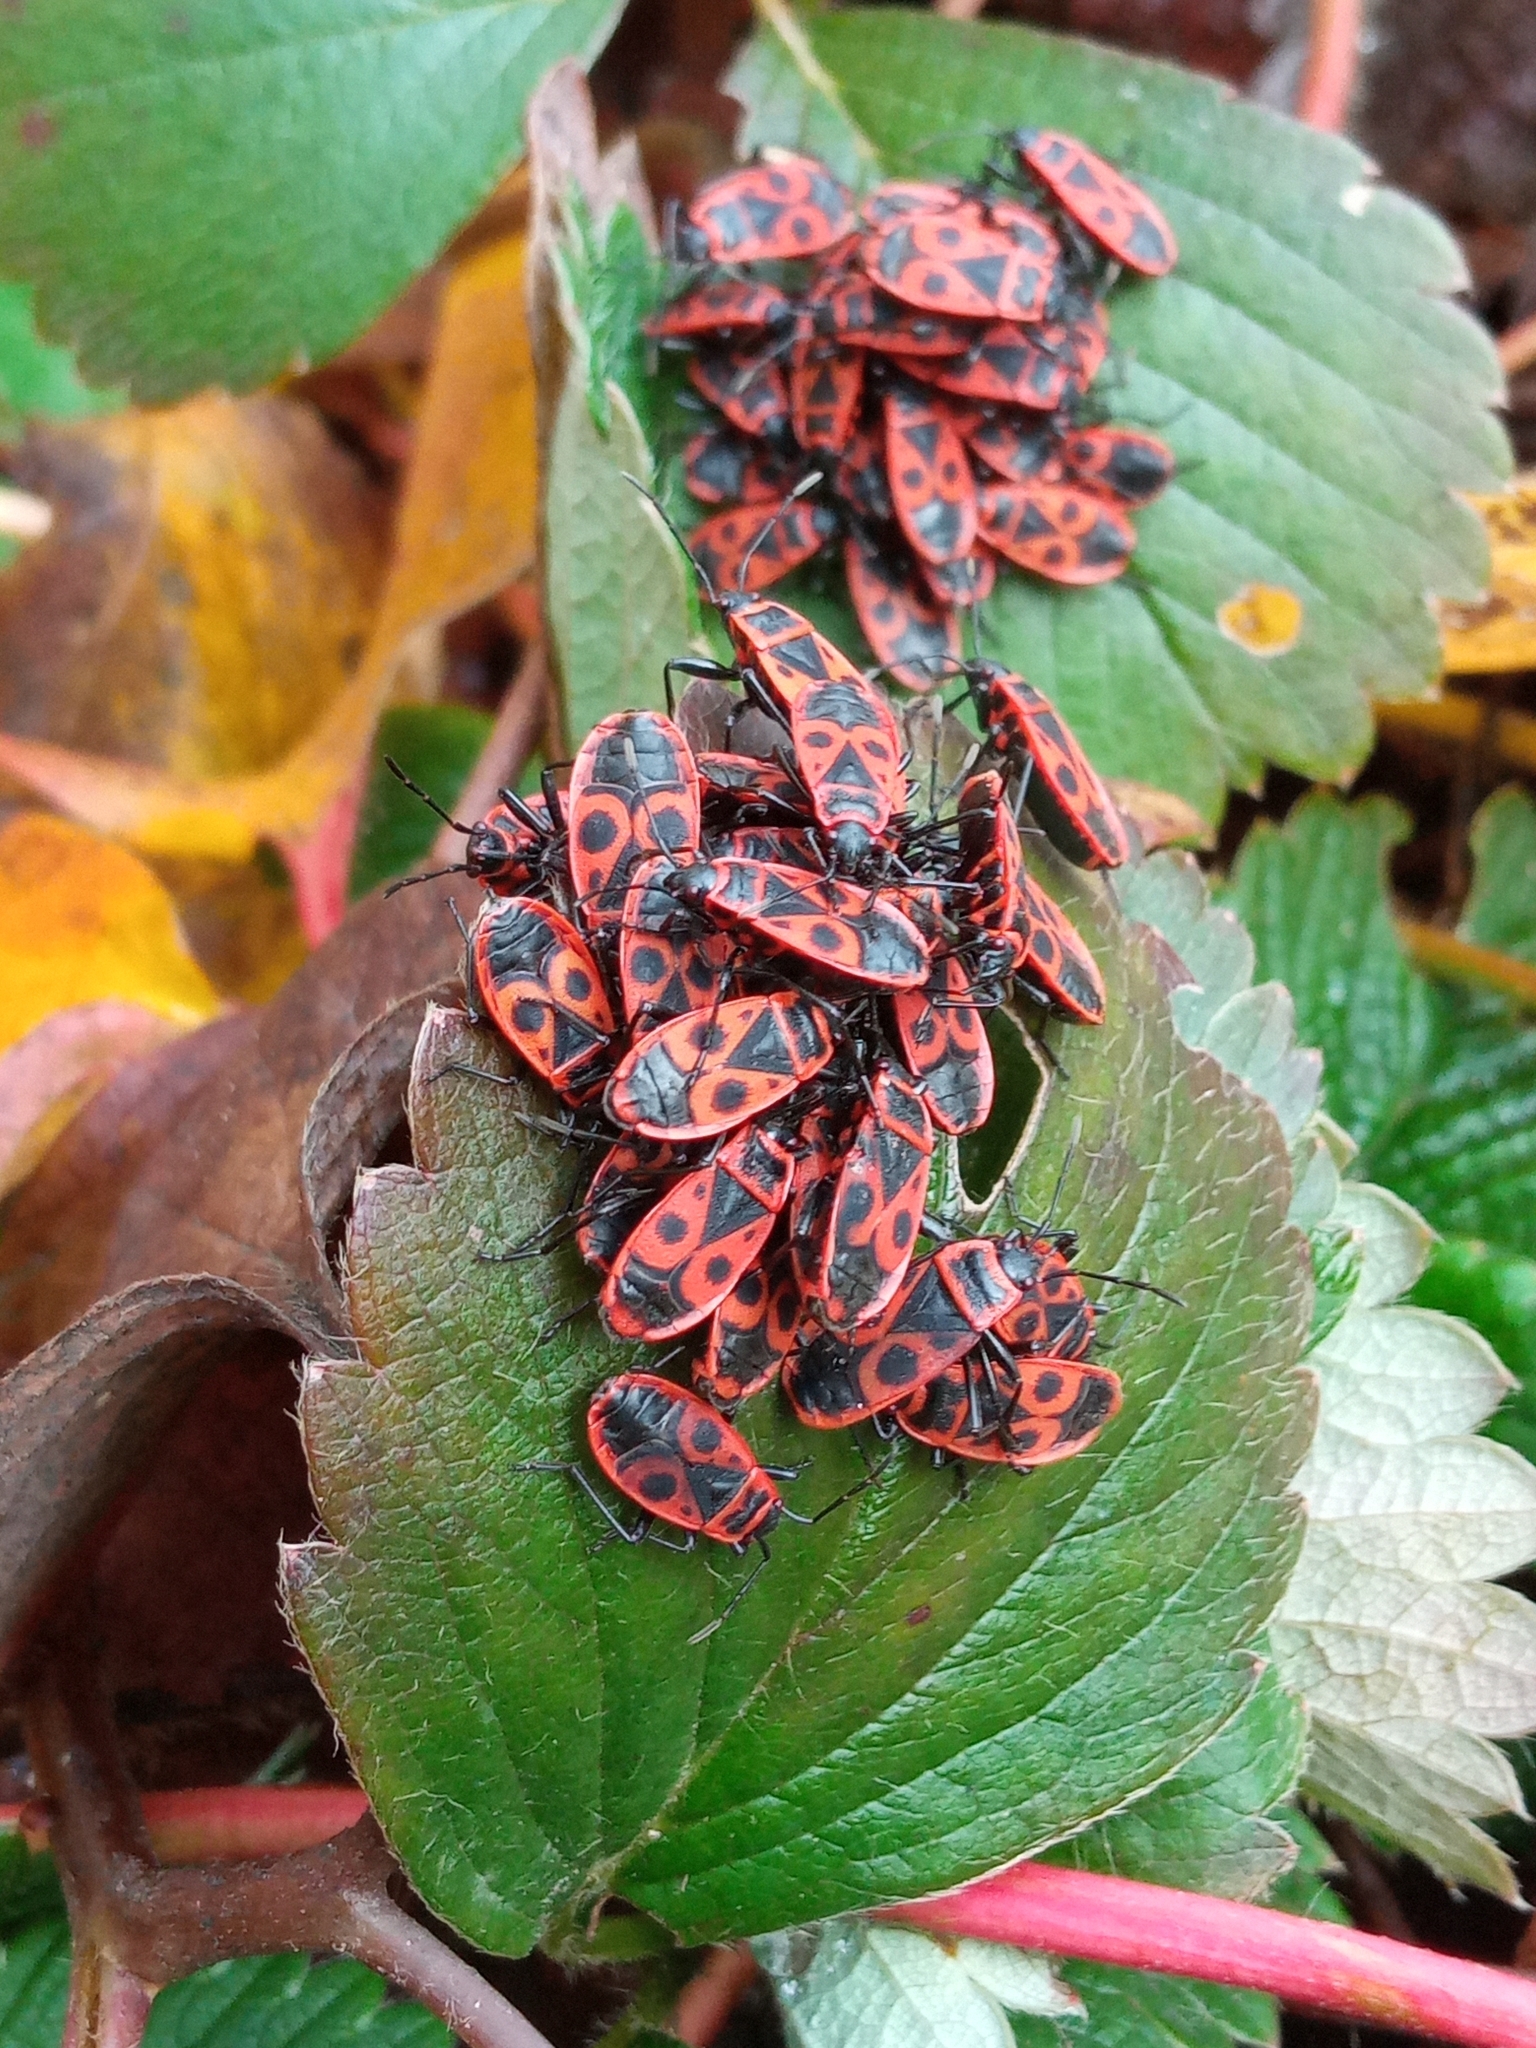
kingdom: Animalia
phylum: Arthropoda
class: Insecta
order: Hemiptera
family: Pyrrhocoridae
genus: Pyrrhocoris
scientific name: Pyrrhocoris apterus
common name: Firebug
